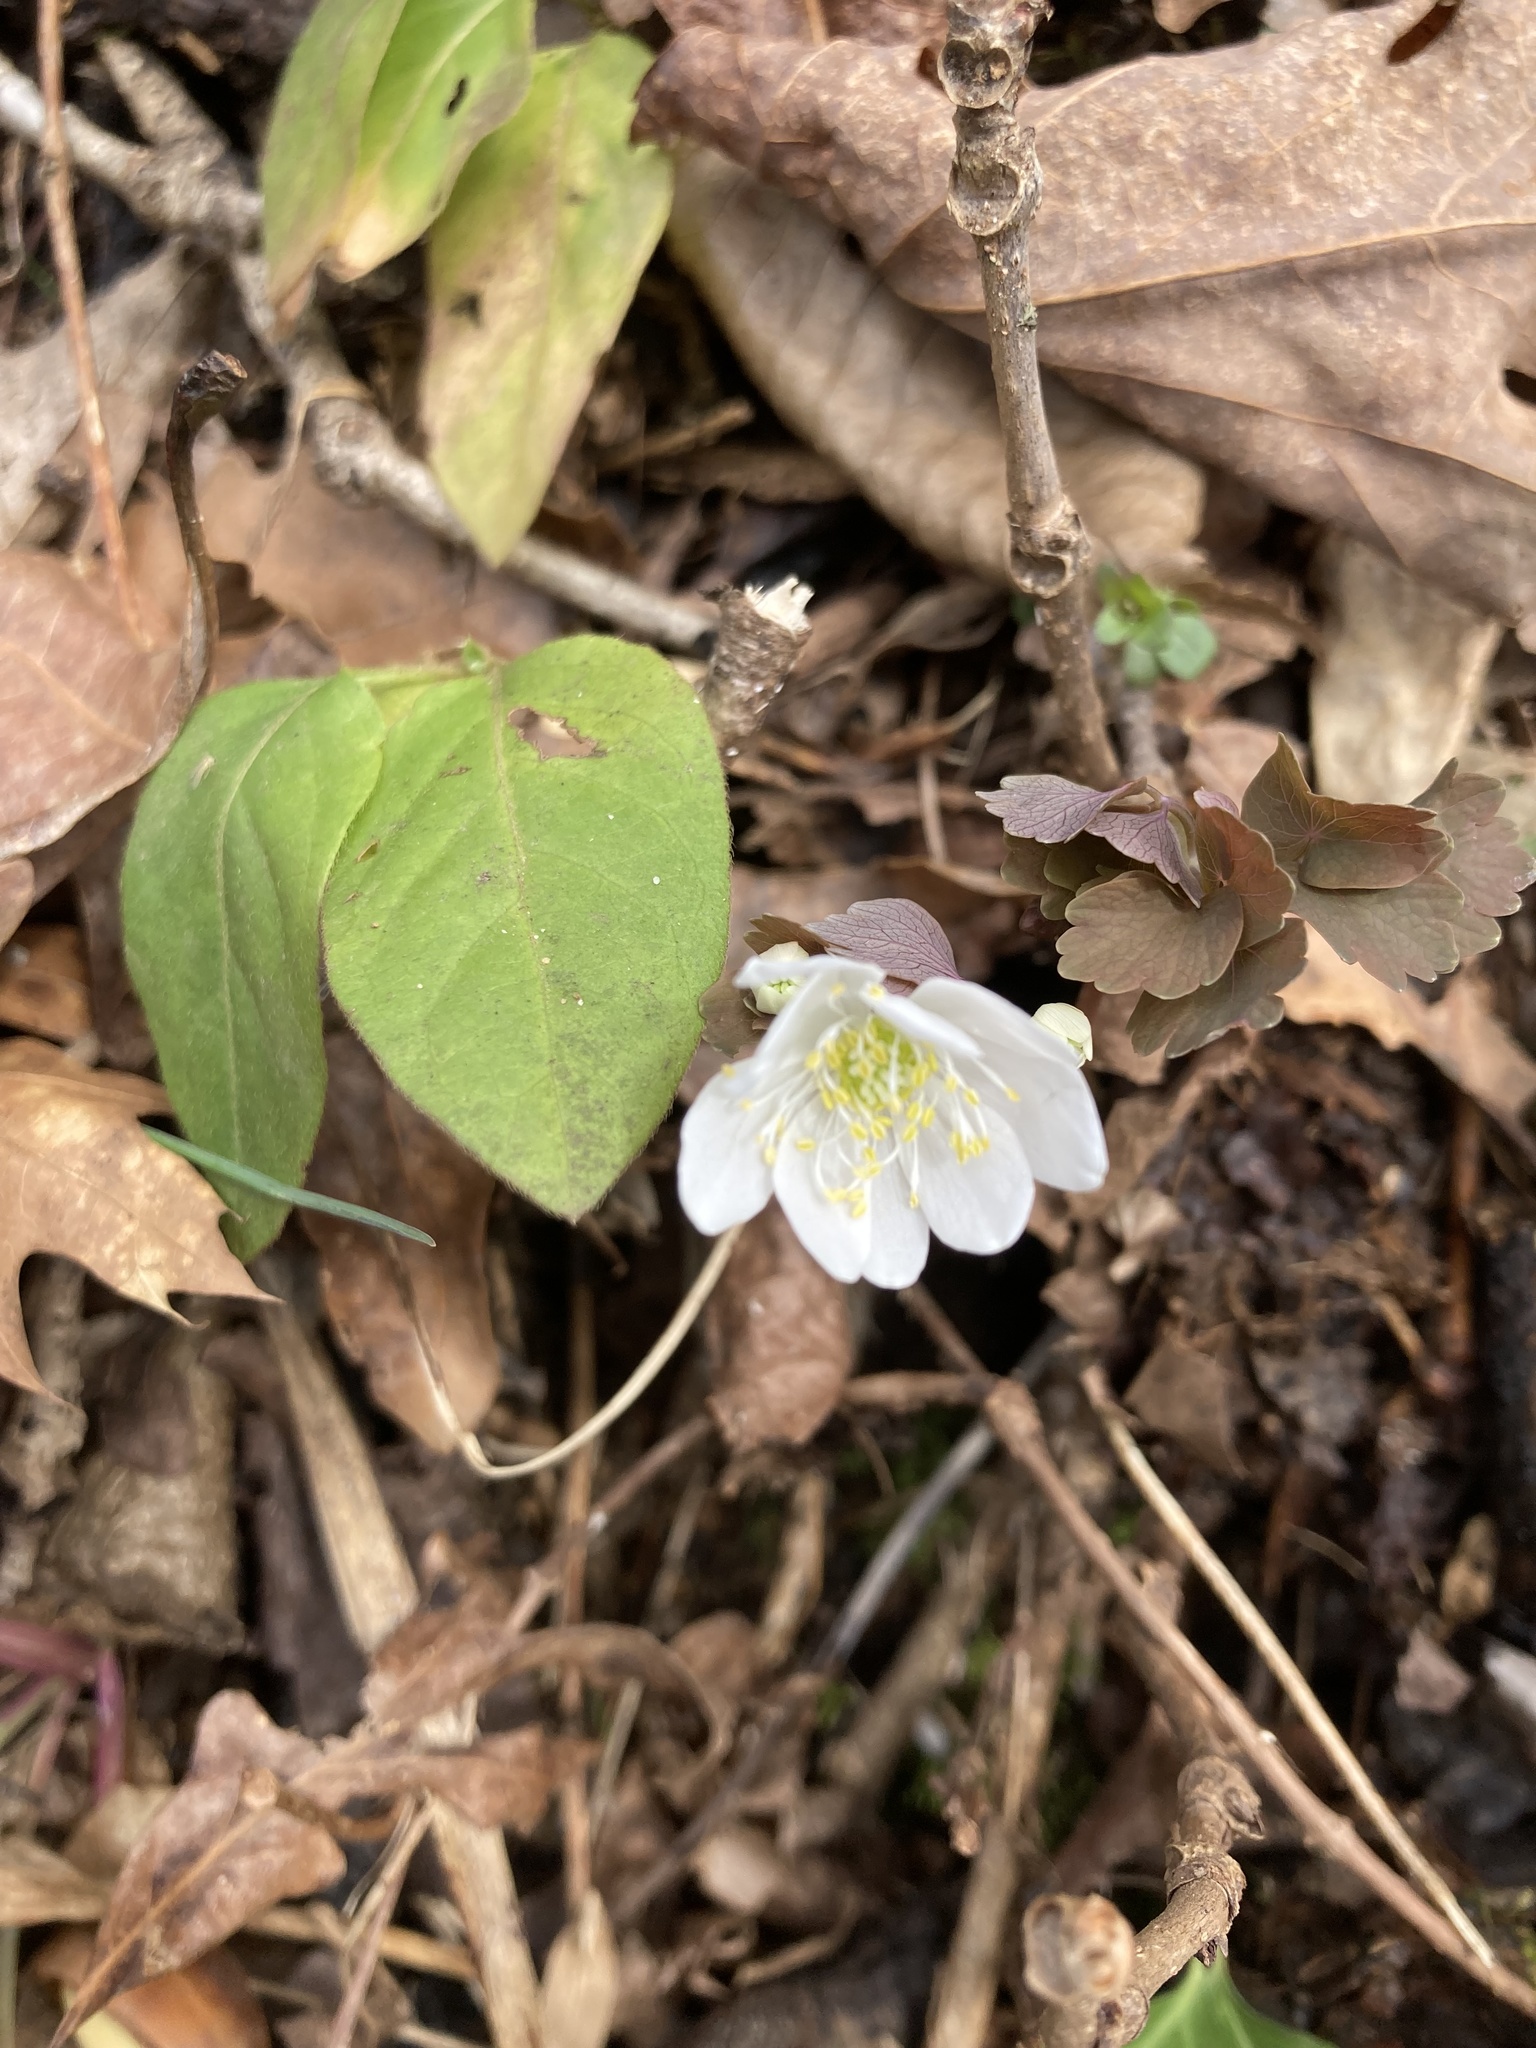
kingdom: Plantae
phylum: Tracheophyta
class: Magnoliopsida
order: Ranunculales
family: Ranunculaceae
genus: Thalictrum
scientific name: Thalictrum thalictroides
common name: Rue-anemone
